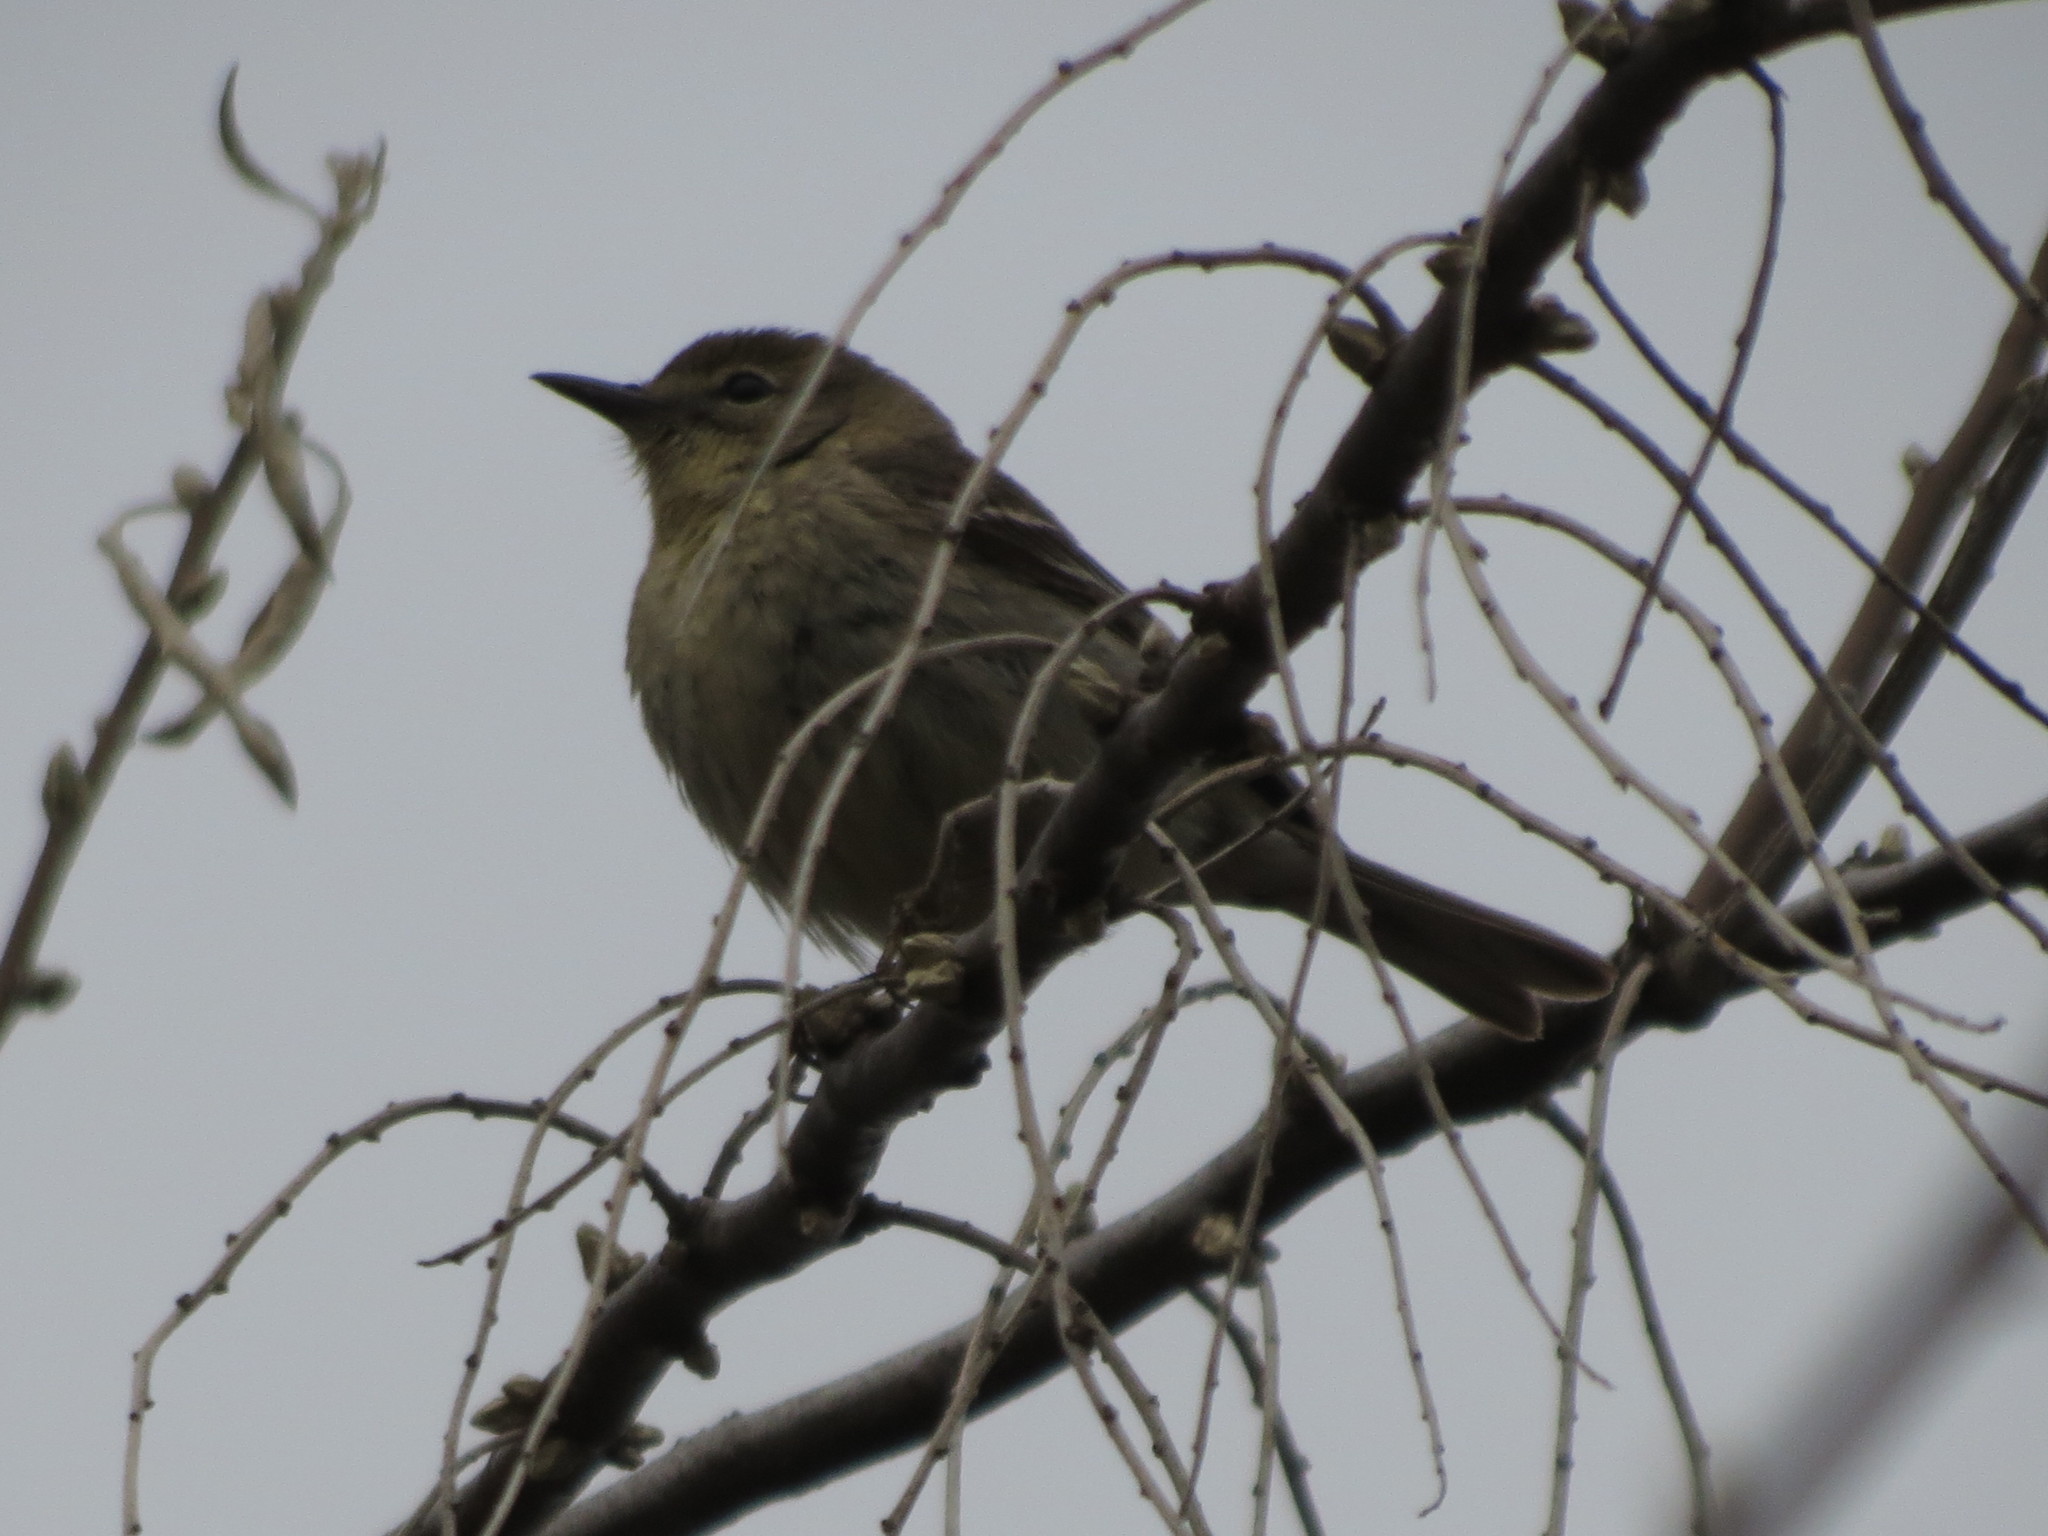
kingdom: Animalia
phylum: Chordata
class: Aves
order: Passeriformes
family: Parulidae
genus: Setophaga
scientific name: Setophaga pinus
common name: Pine warbler
